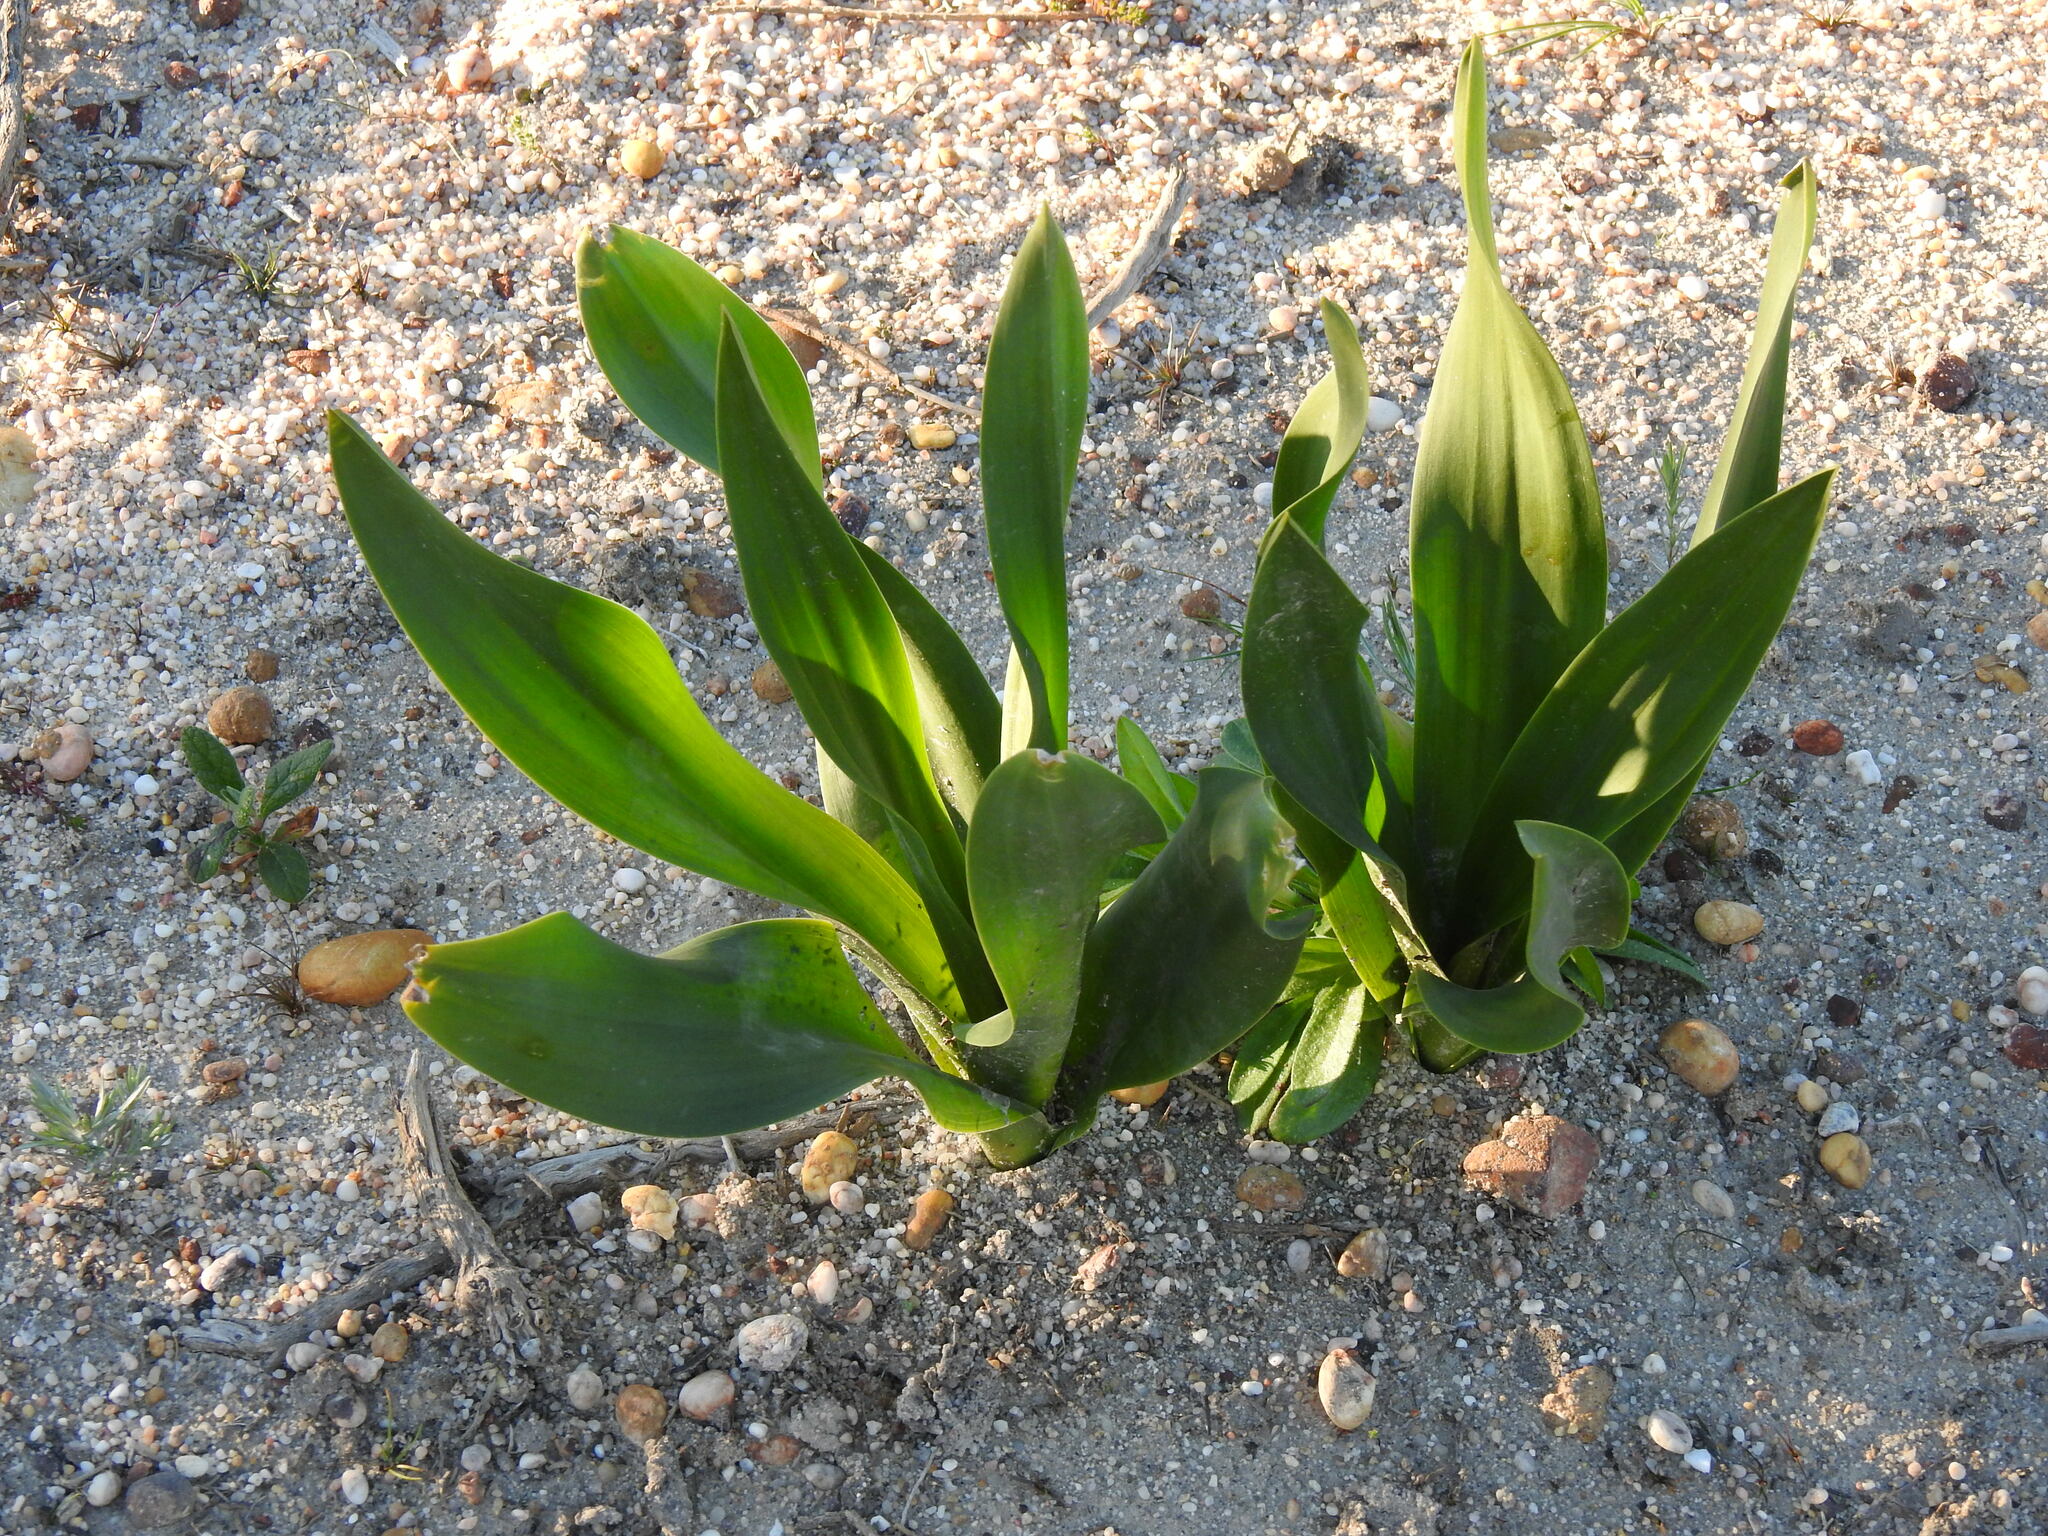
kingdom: Plantae
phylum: Tracheophyta
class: Liliopsida
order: Asparagales
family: Asparagaceae
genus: Drimia
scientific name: Drimia maritima
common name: Maritime squill
